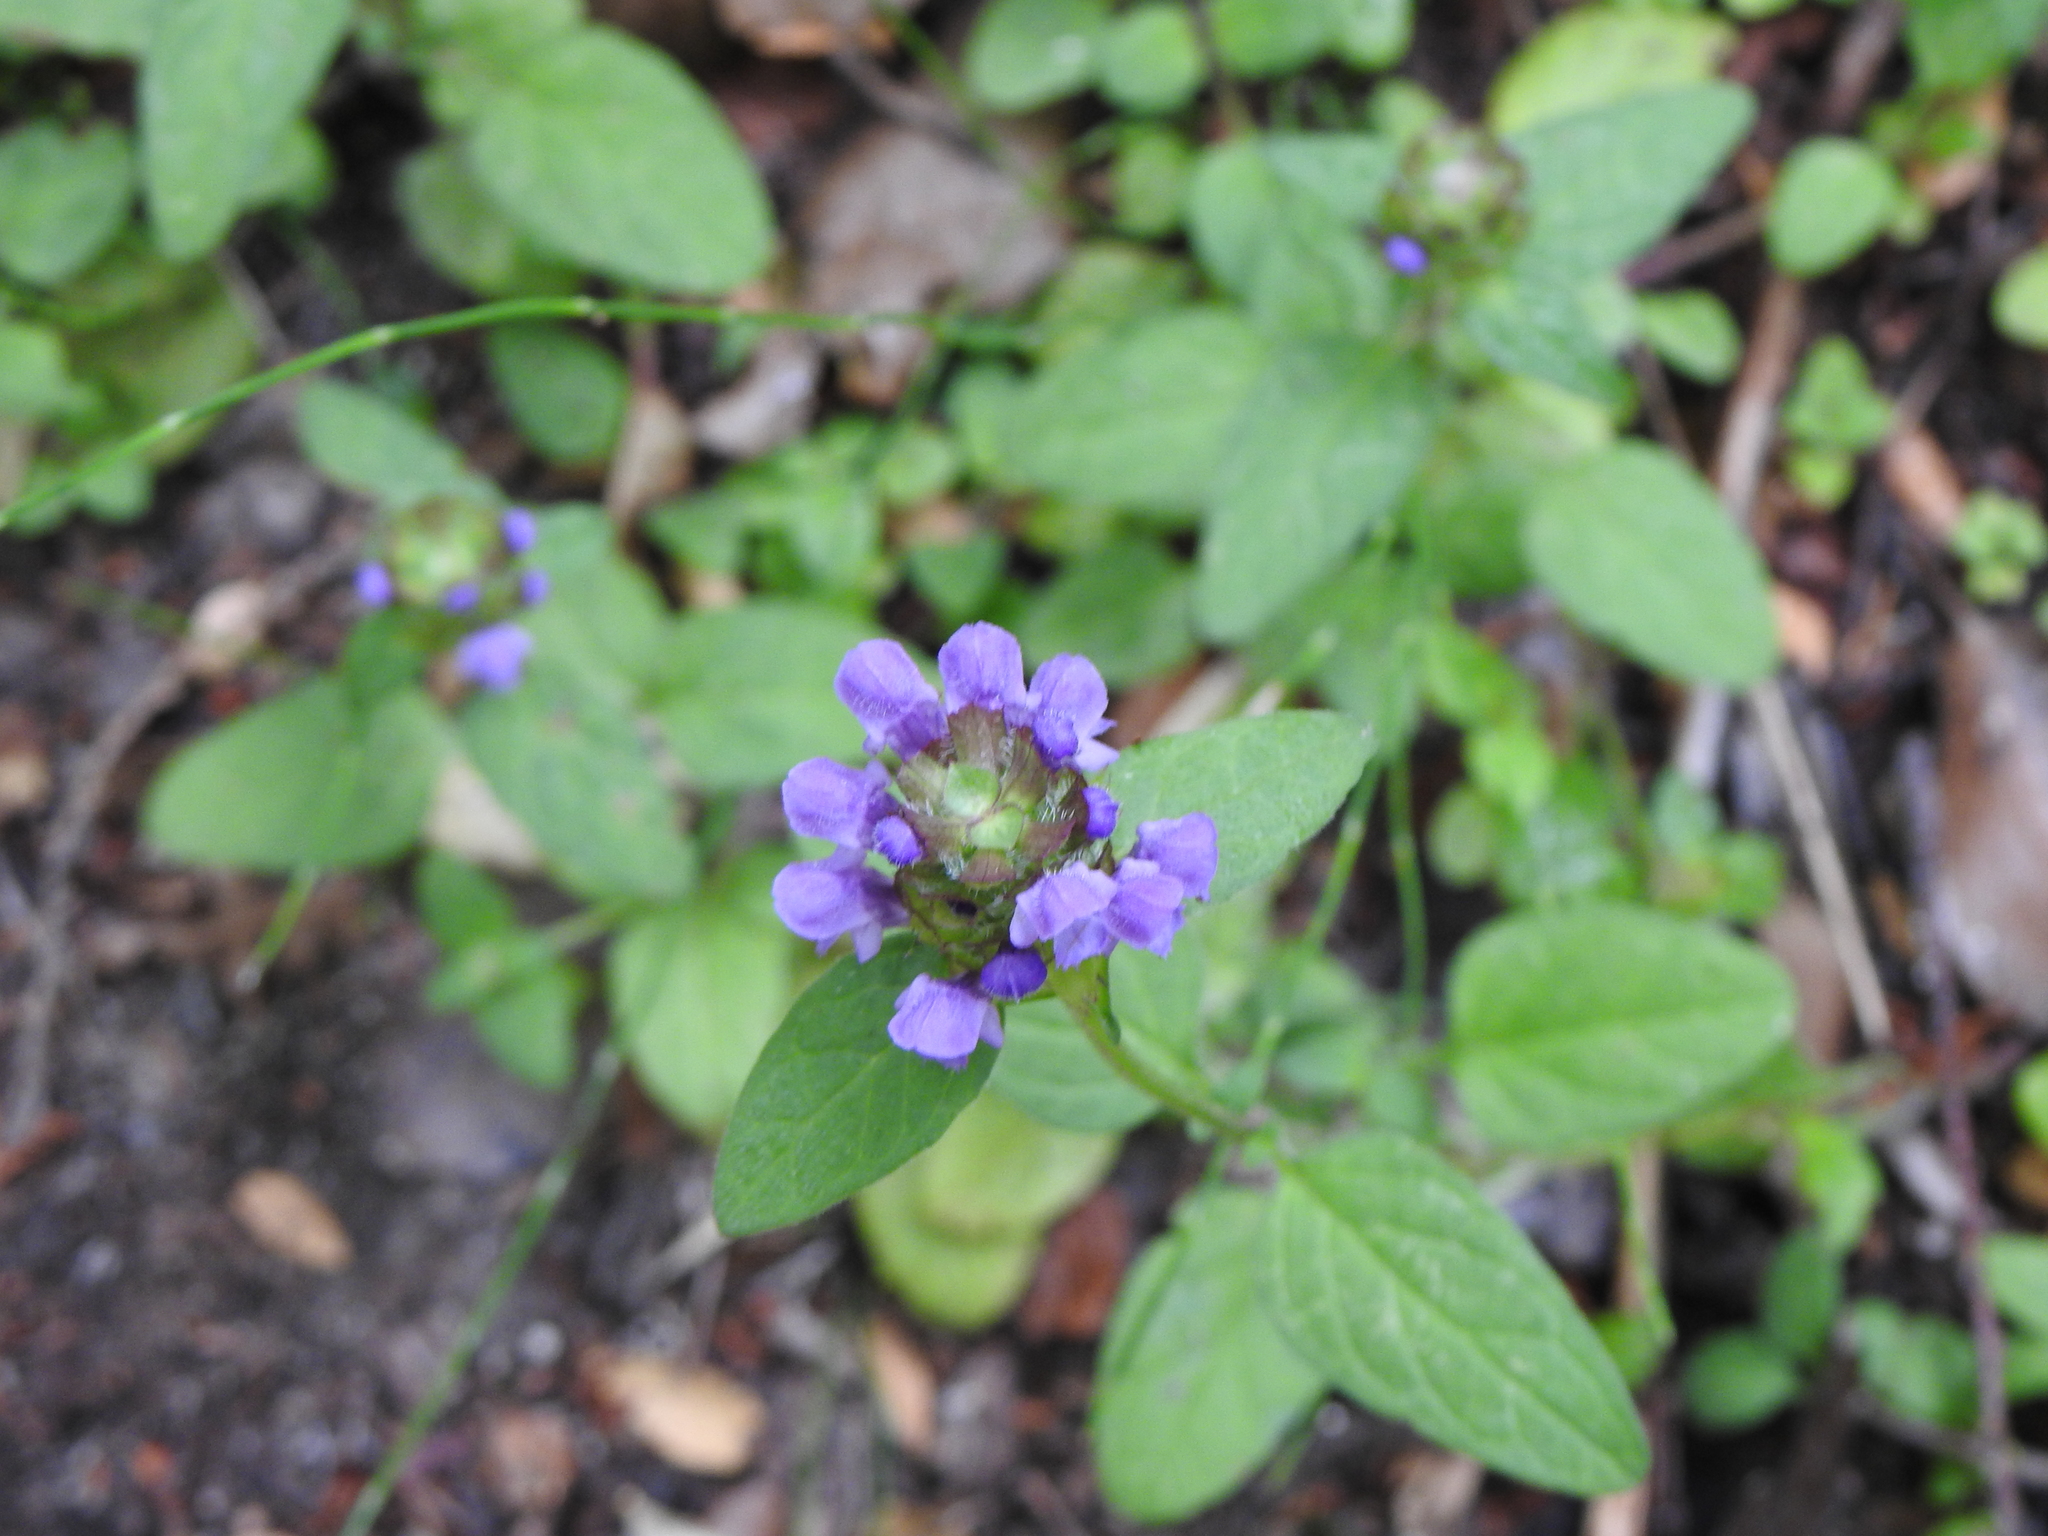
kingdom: Plantae
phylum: Tracheophyta
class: Magnoliopsida
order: Lamiales
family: Lamiaceae
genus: Prunella
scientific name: Prunella vulgaris
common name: Heal-all
